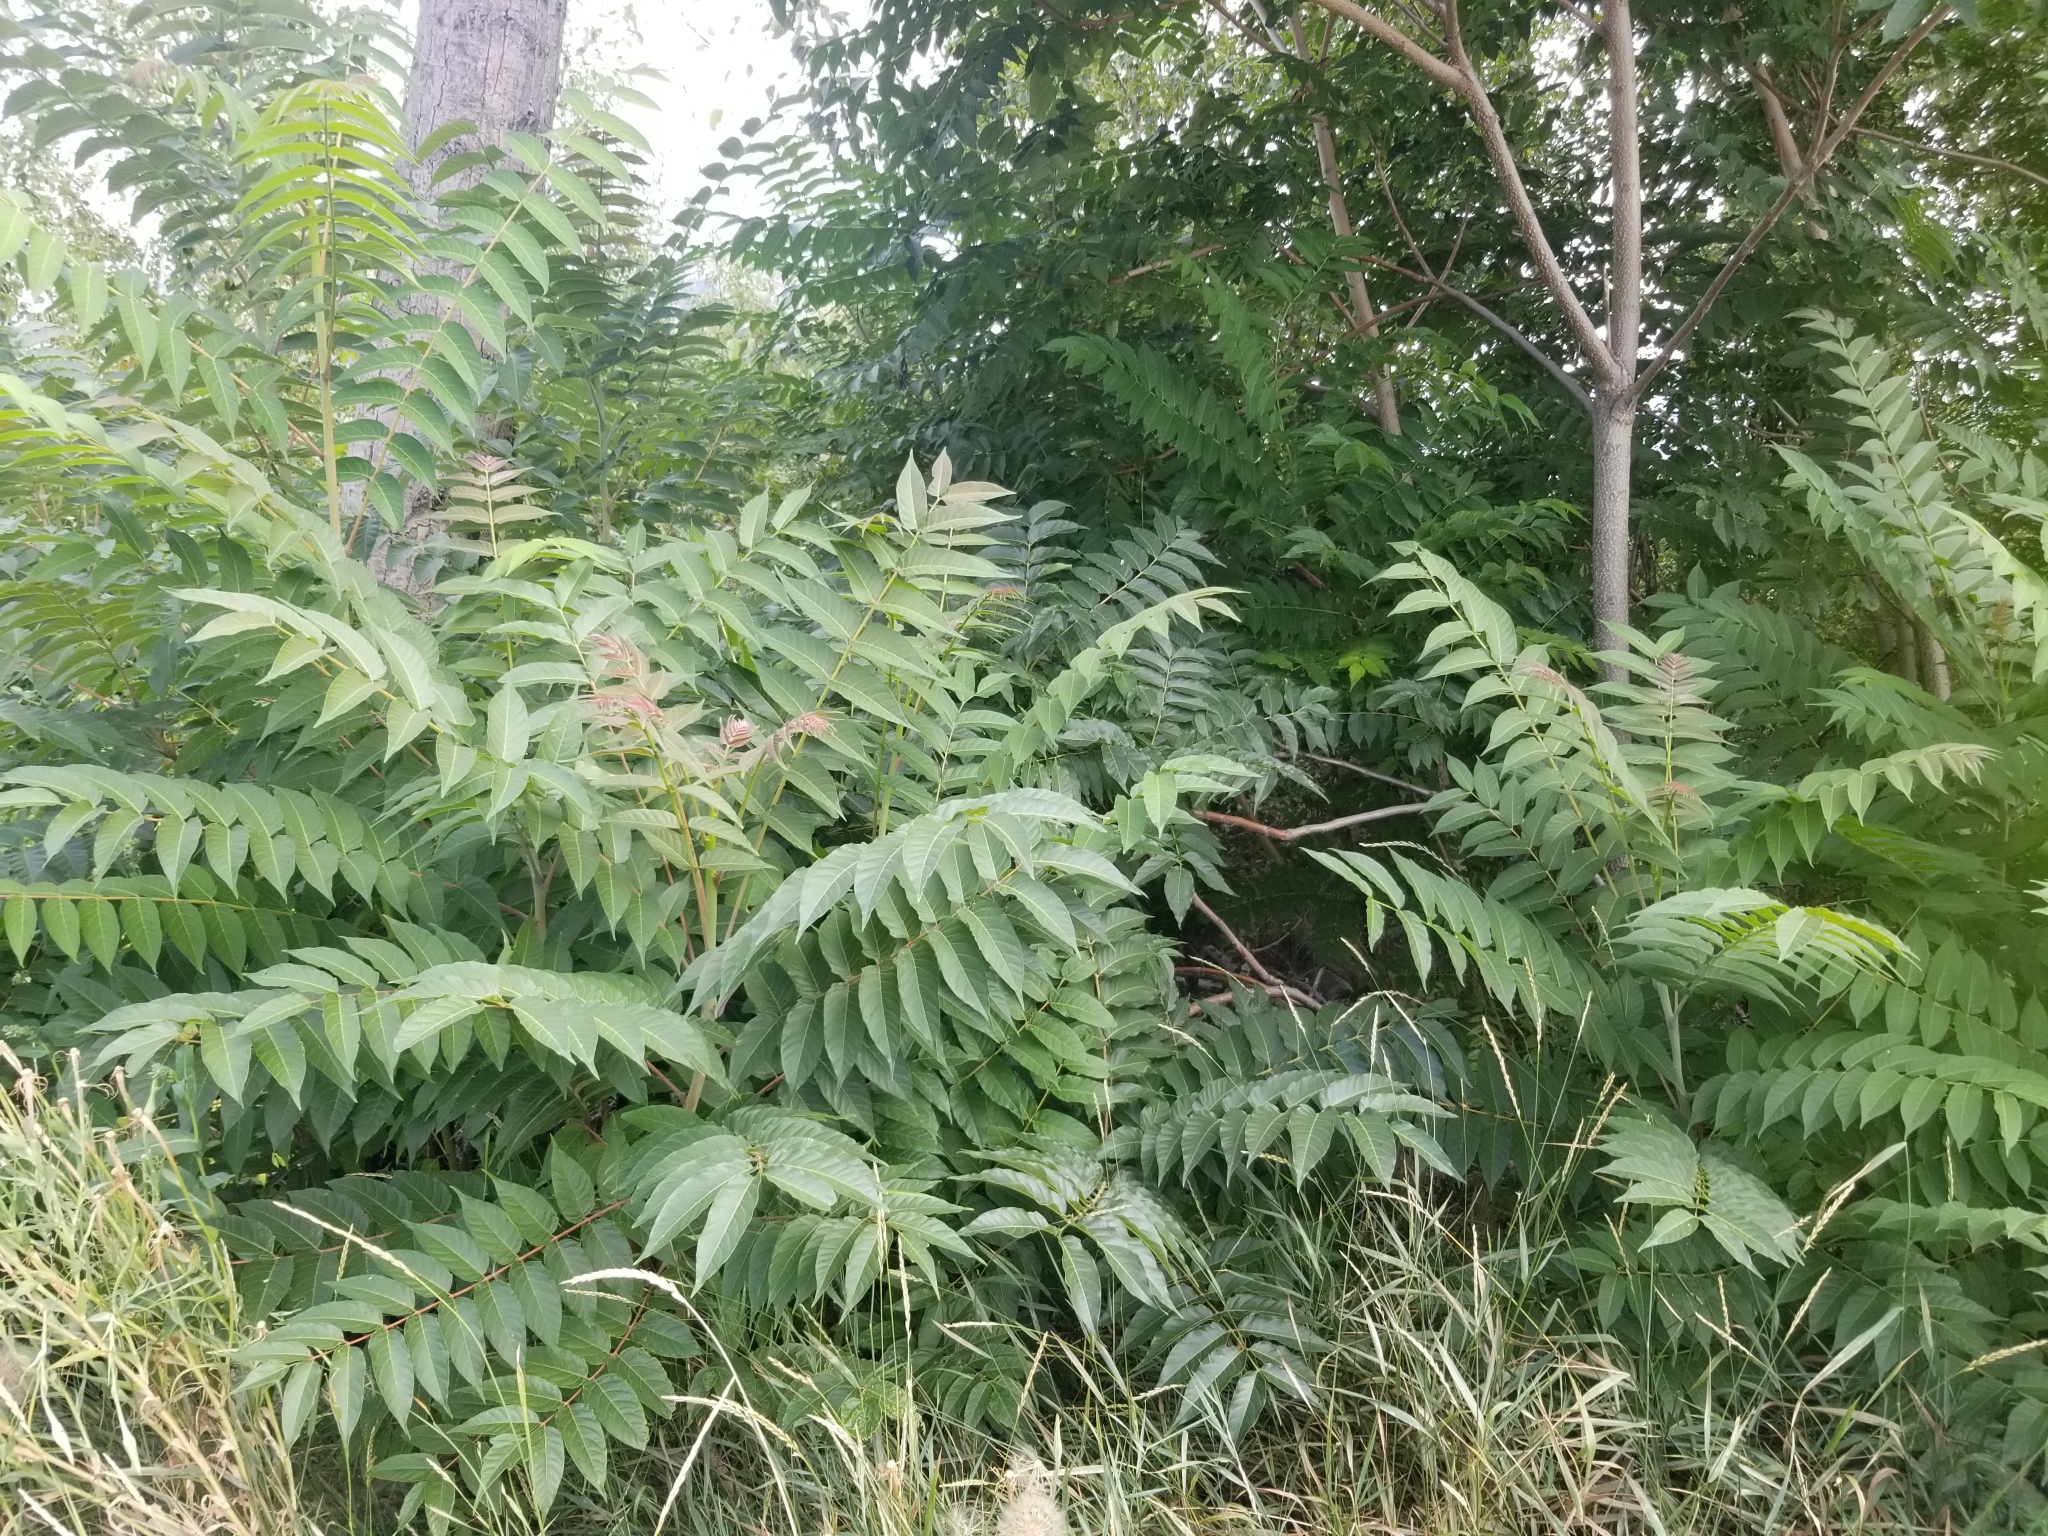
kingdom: Plantae
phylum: Tracheophyta
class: Magnoliopsida
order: Sapindales
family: Simaroubaceae
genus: Ailanthus
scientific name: Ailanthus altissima
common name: Tree-of-heaven
